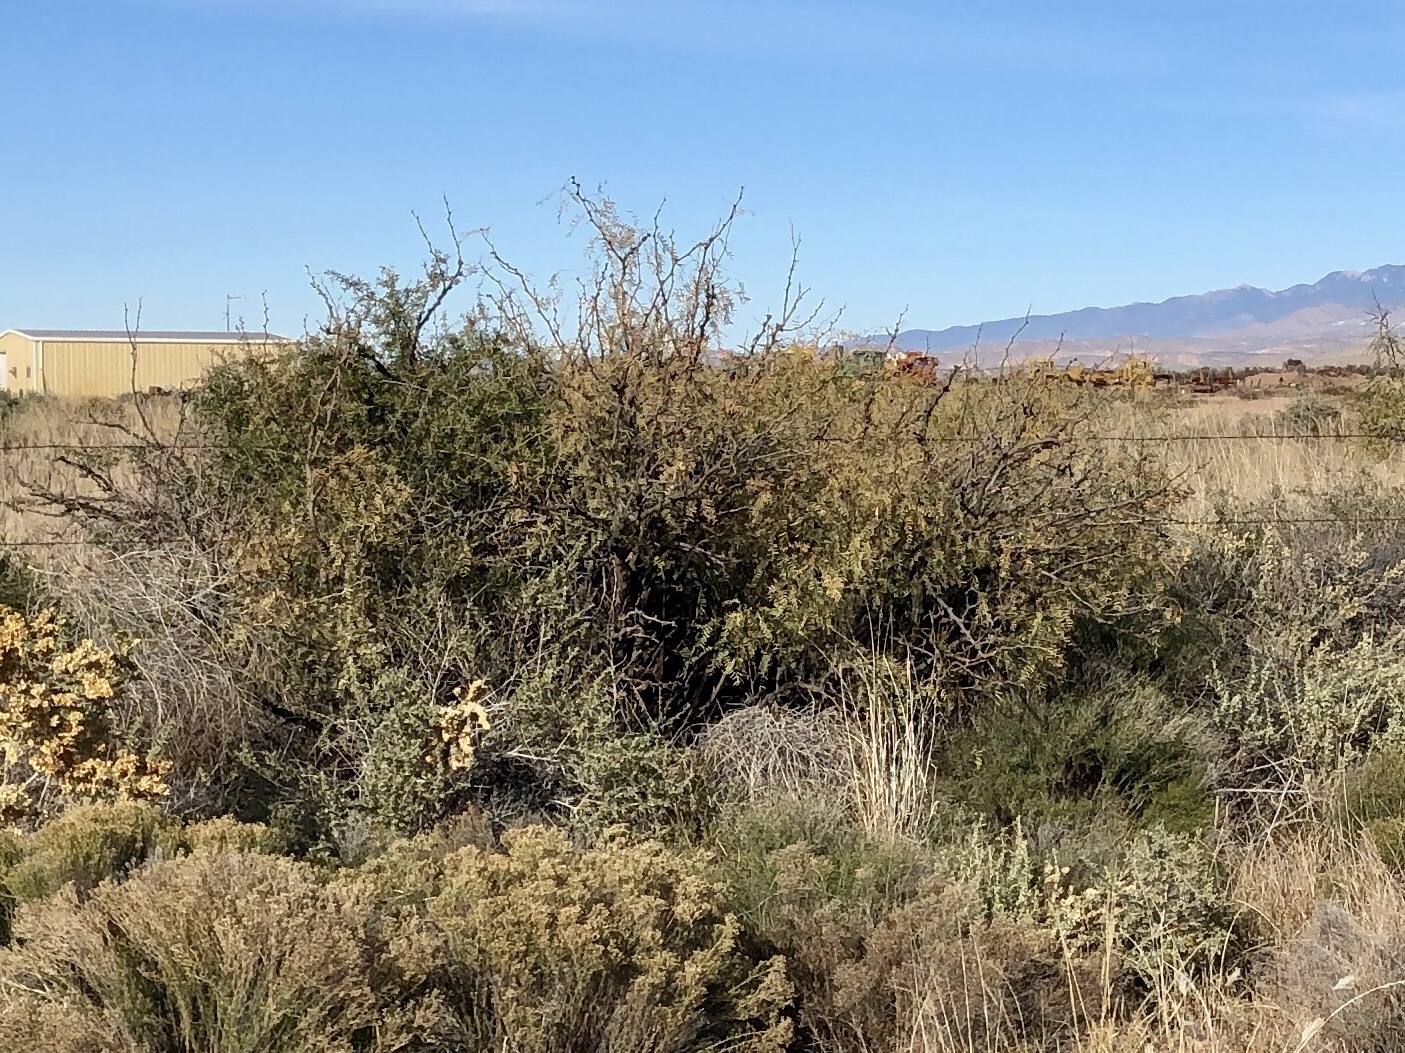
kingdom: Plantae
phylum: Tracheophyta
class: Magnoliopsida
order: Fabales
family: Fabaceae
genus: Prosopis
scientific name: Prosopis glandulosa
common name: Honey mesquite
